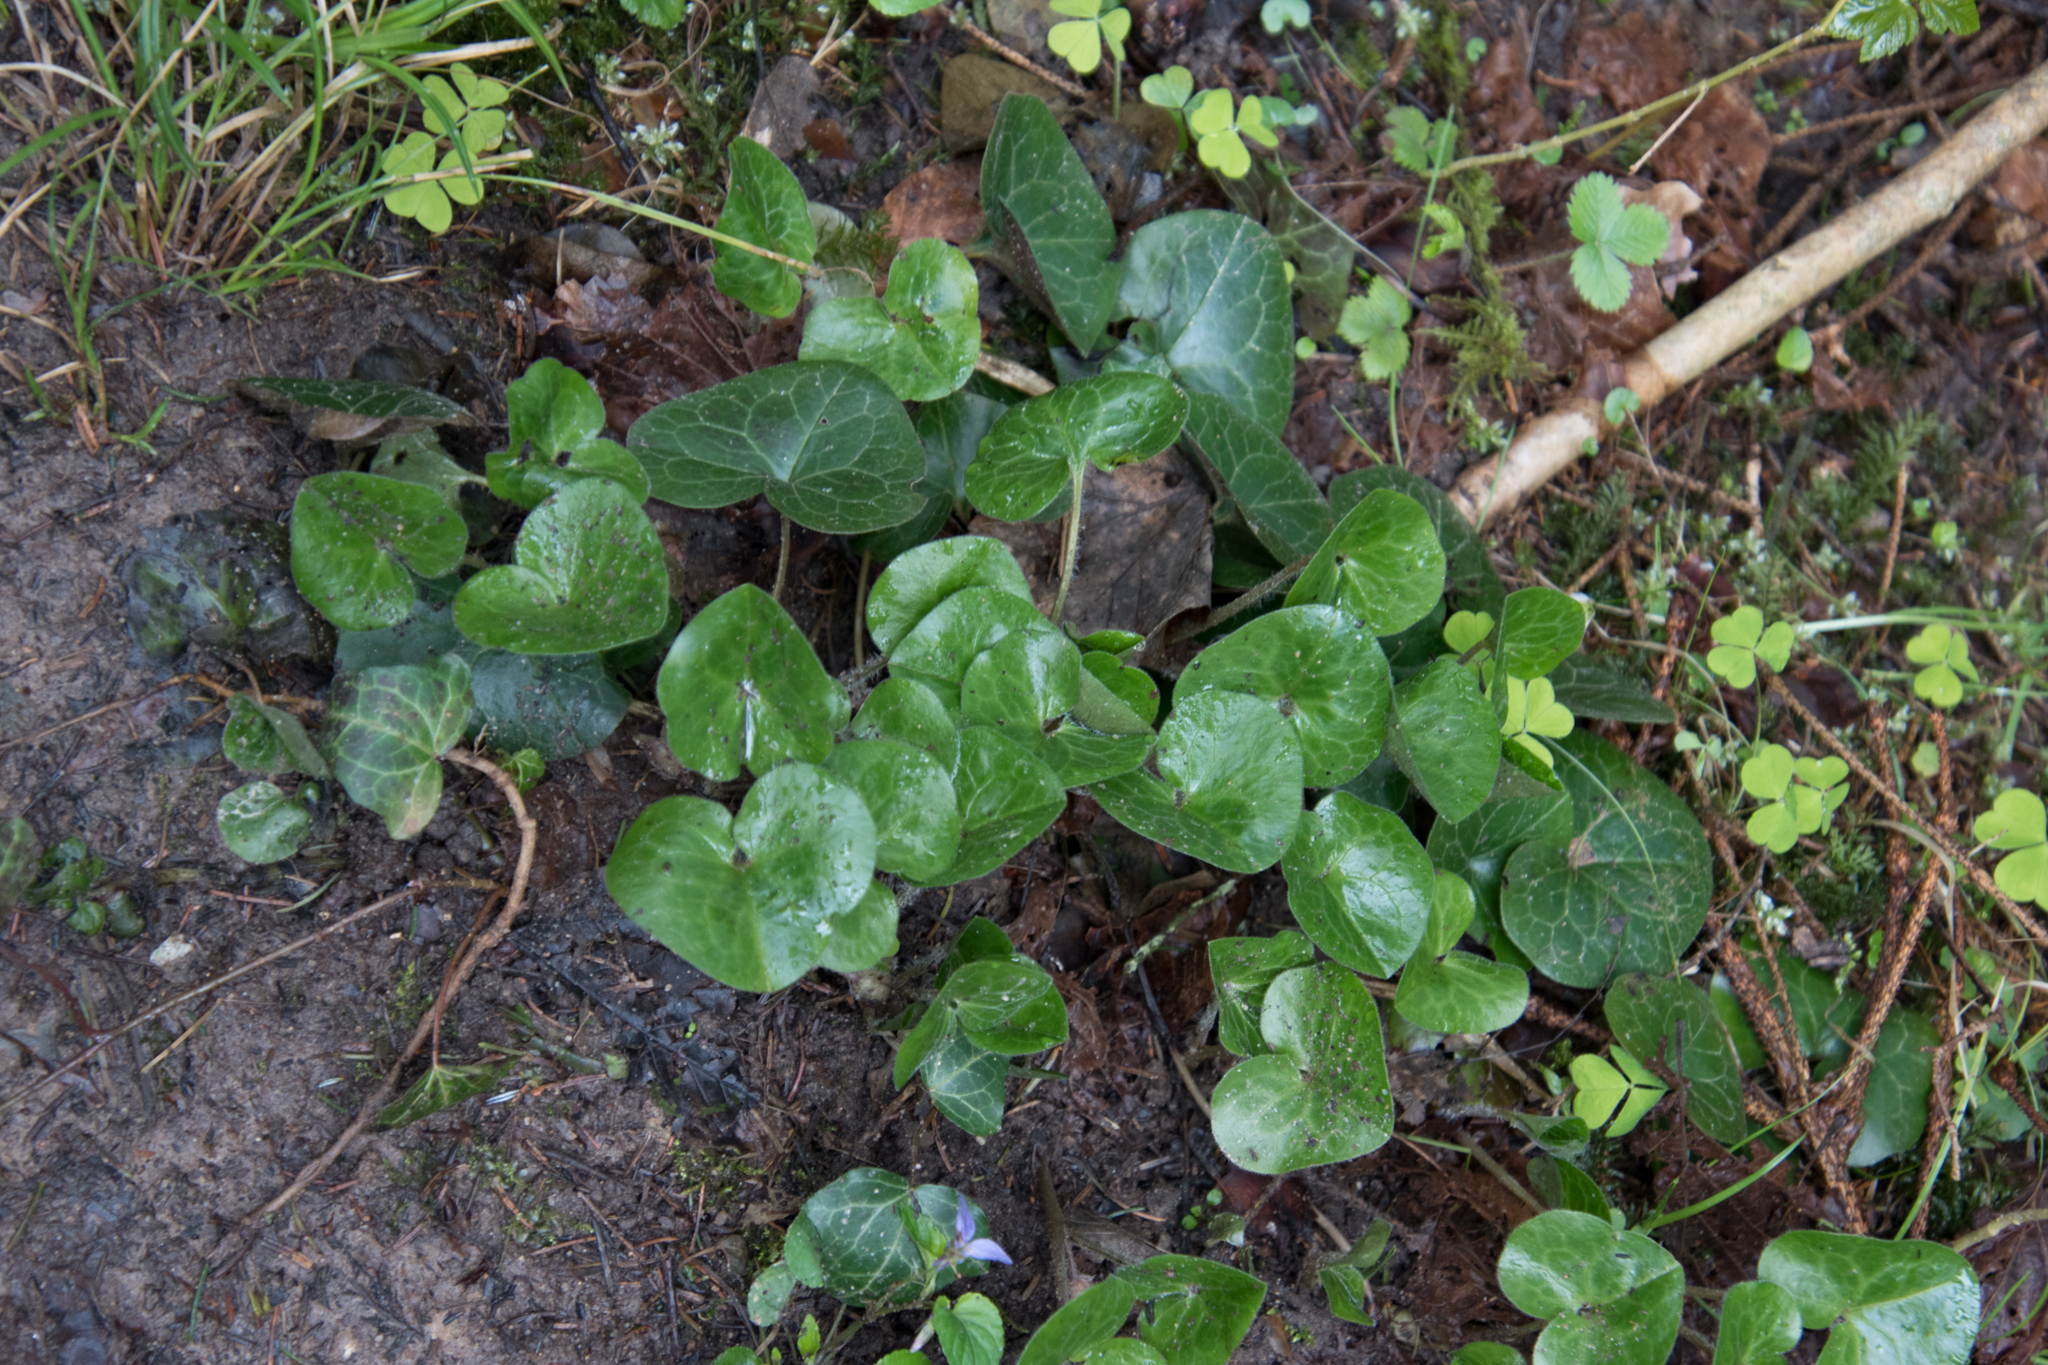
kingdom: Plantae
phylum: Tracheophyta
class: Magnoliopsida
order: Piperales
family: Aristolochiaceae
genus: Asarum
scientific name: Asarum europaeum
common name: Asarabacca
